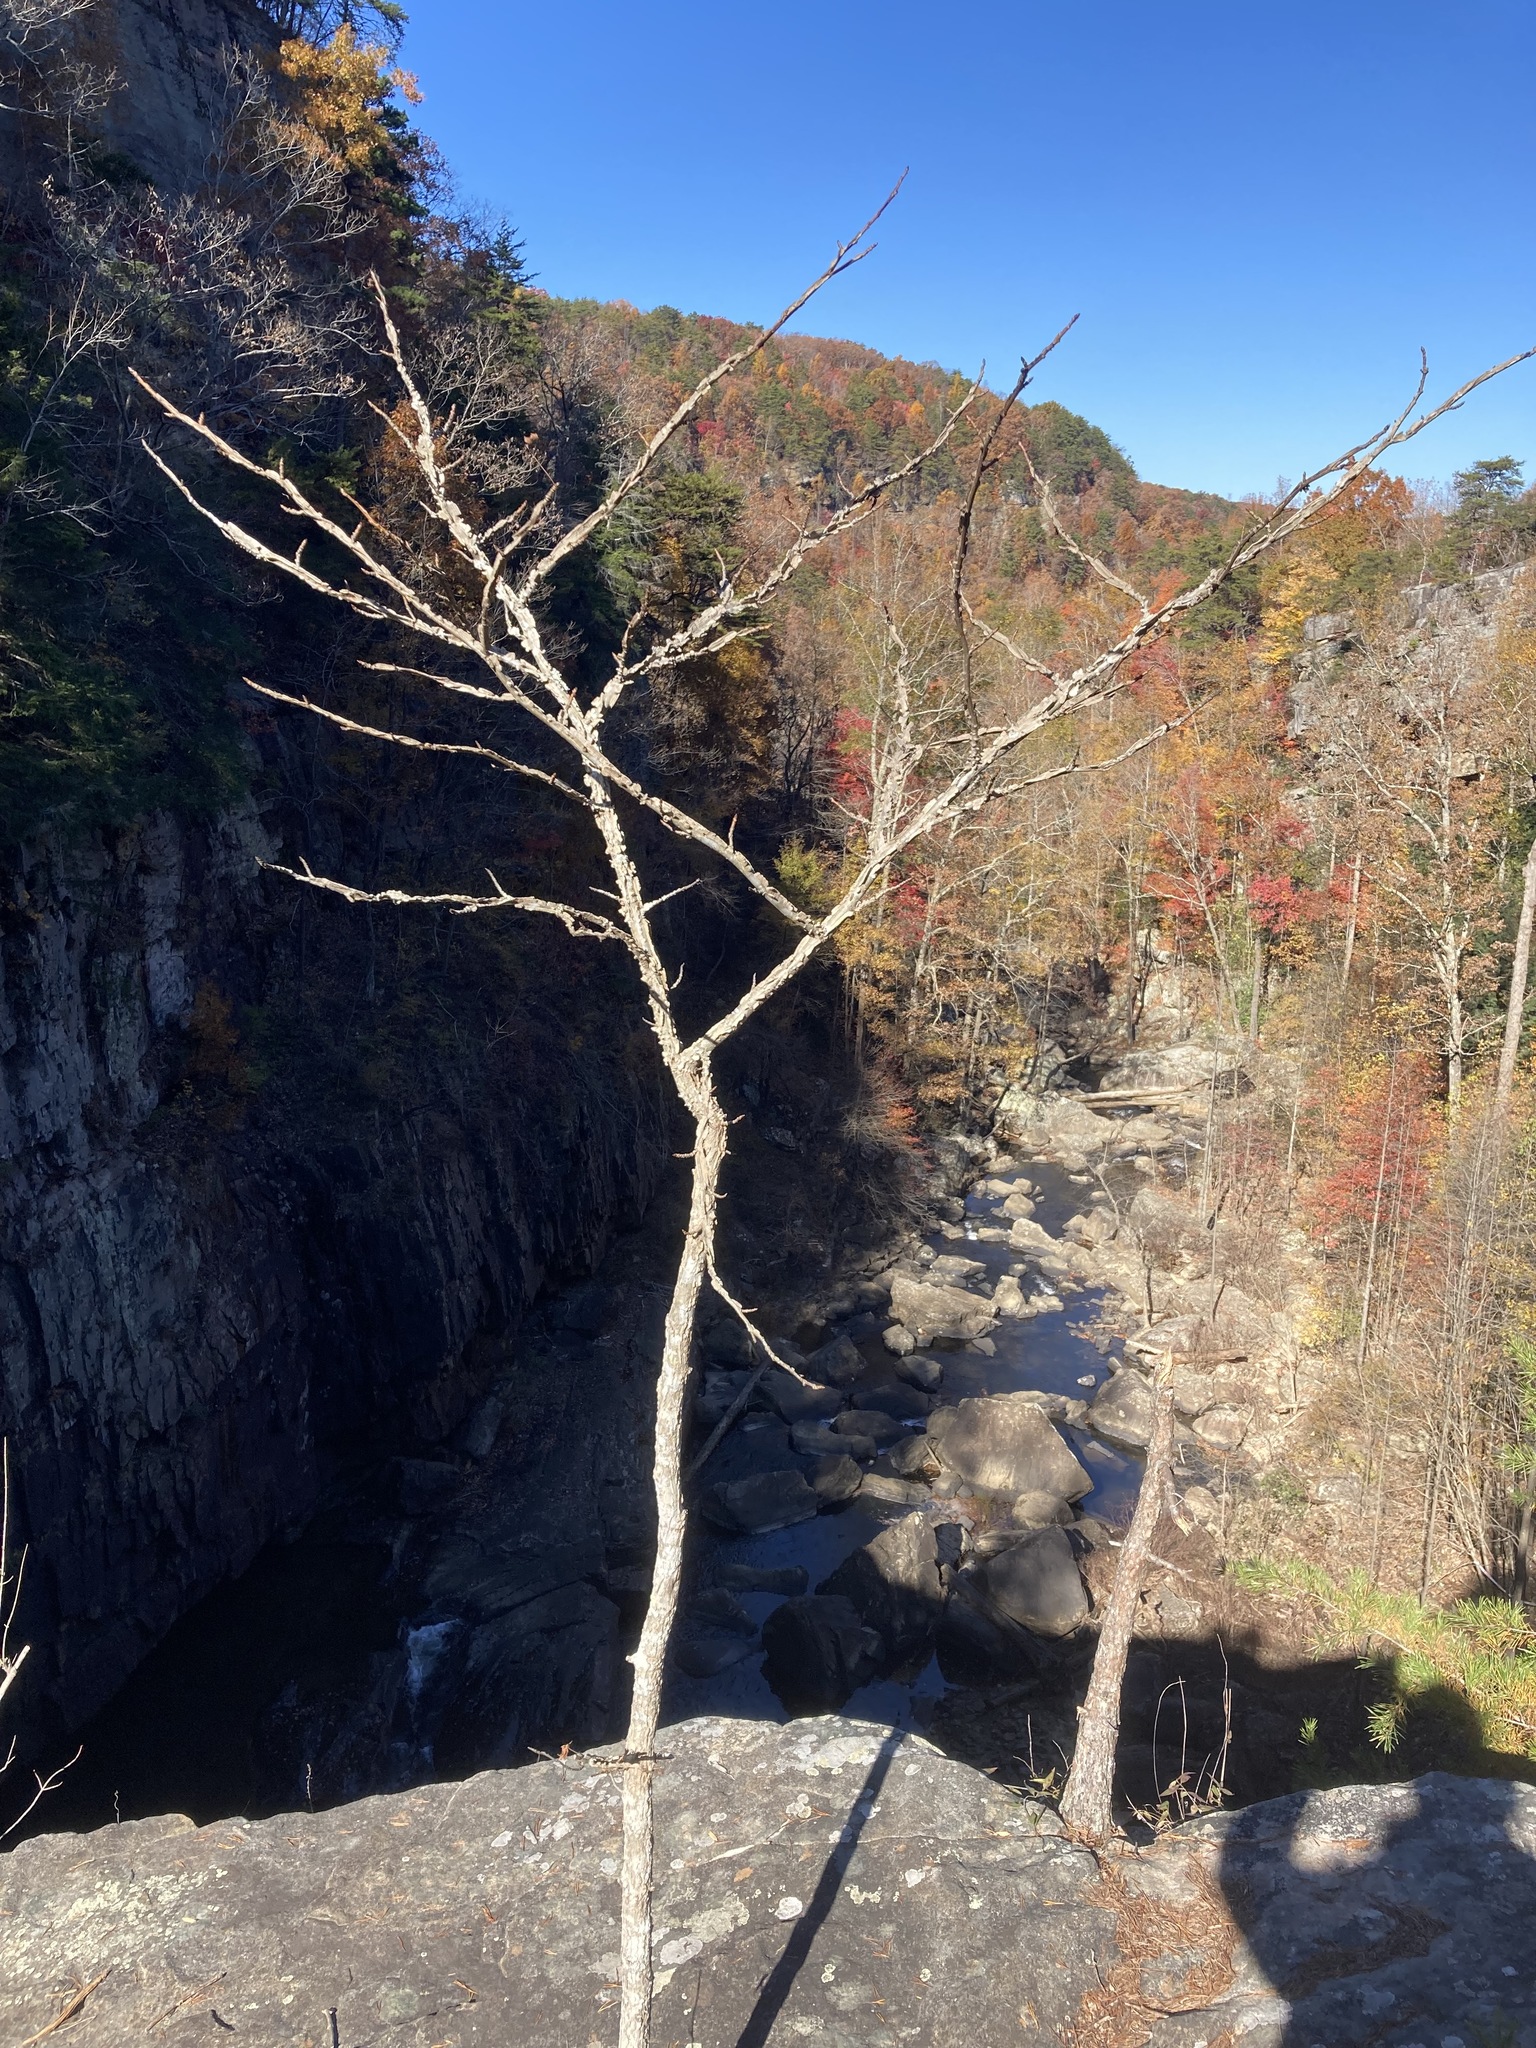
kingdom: Plantae
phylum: Tracheophyta
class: Magnoliopsida
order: Saxifragales
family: Altingiaceae
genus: Liquidambar
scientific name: Liquidambar styraciflua
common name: Sweet gum
